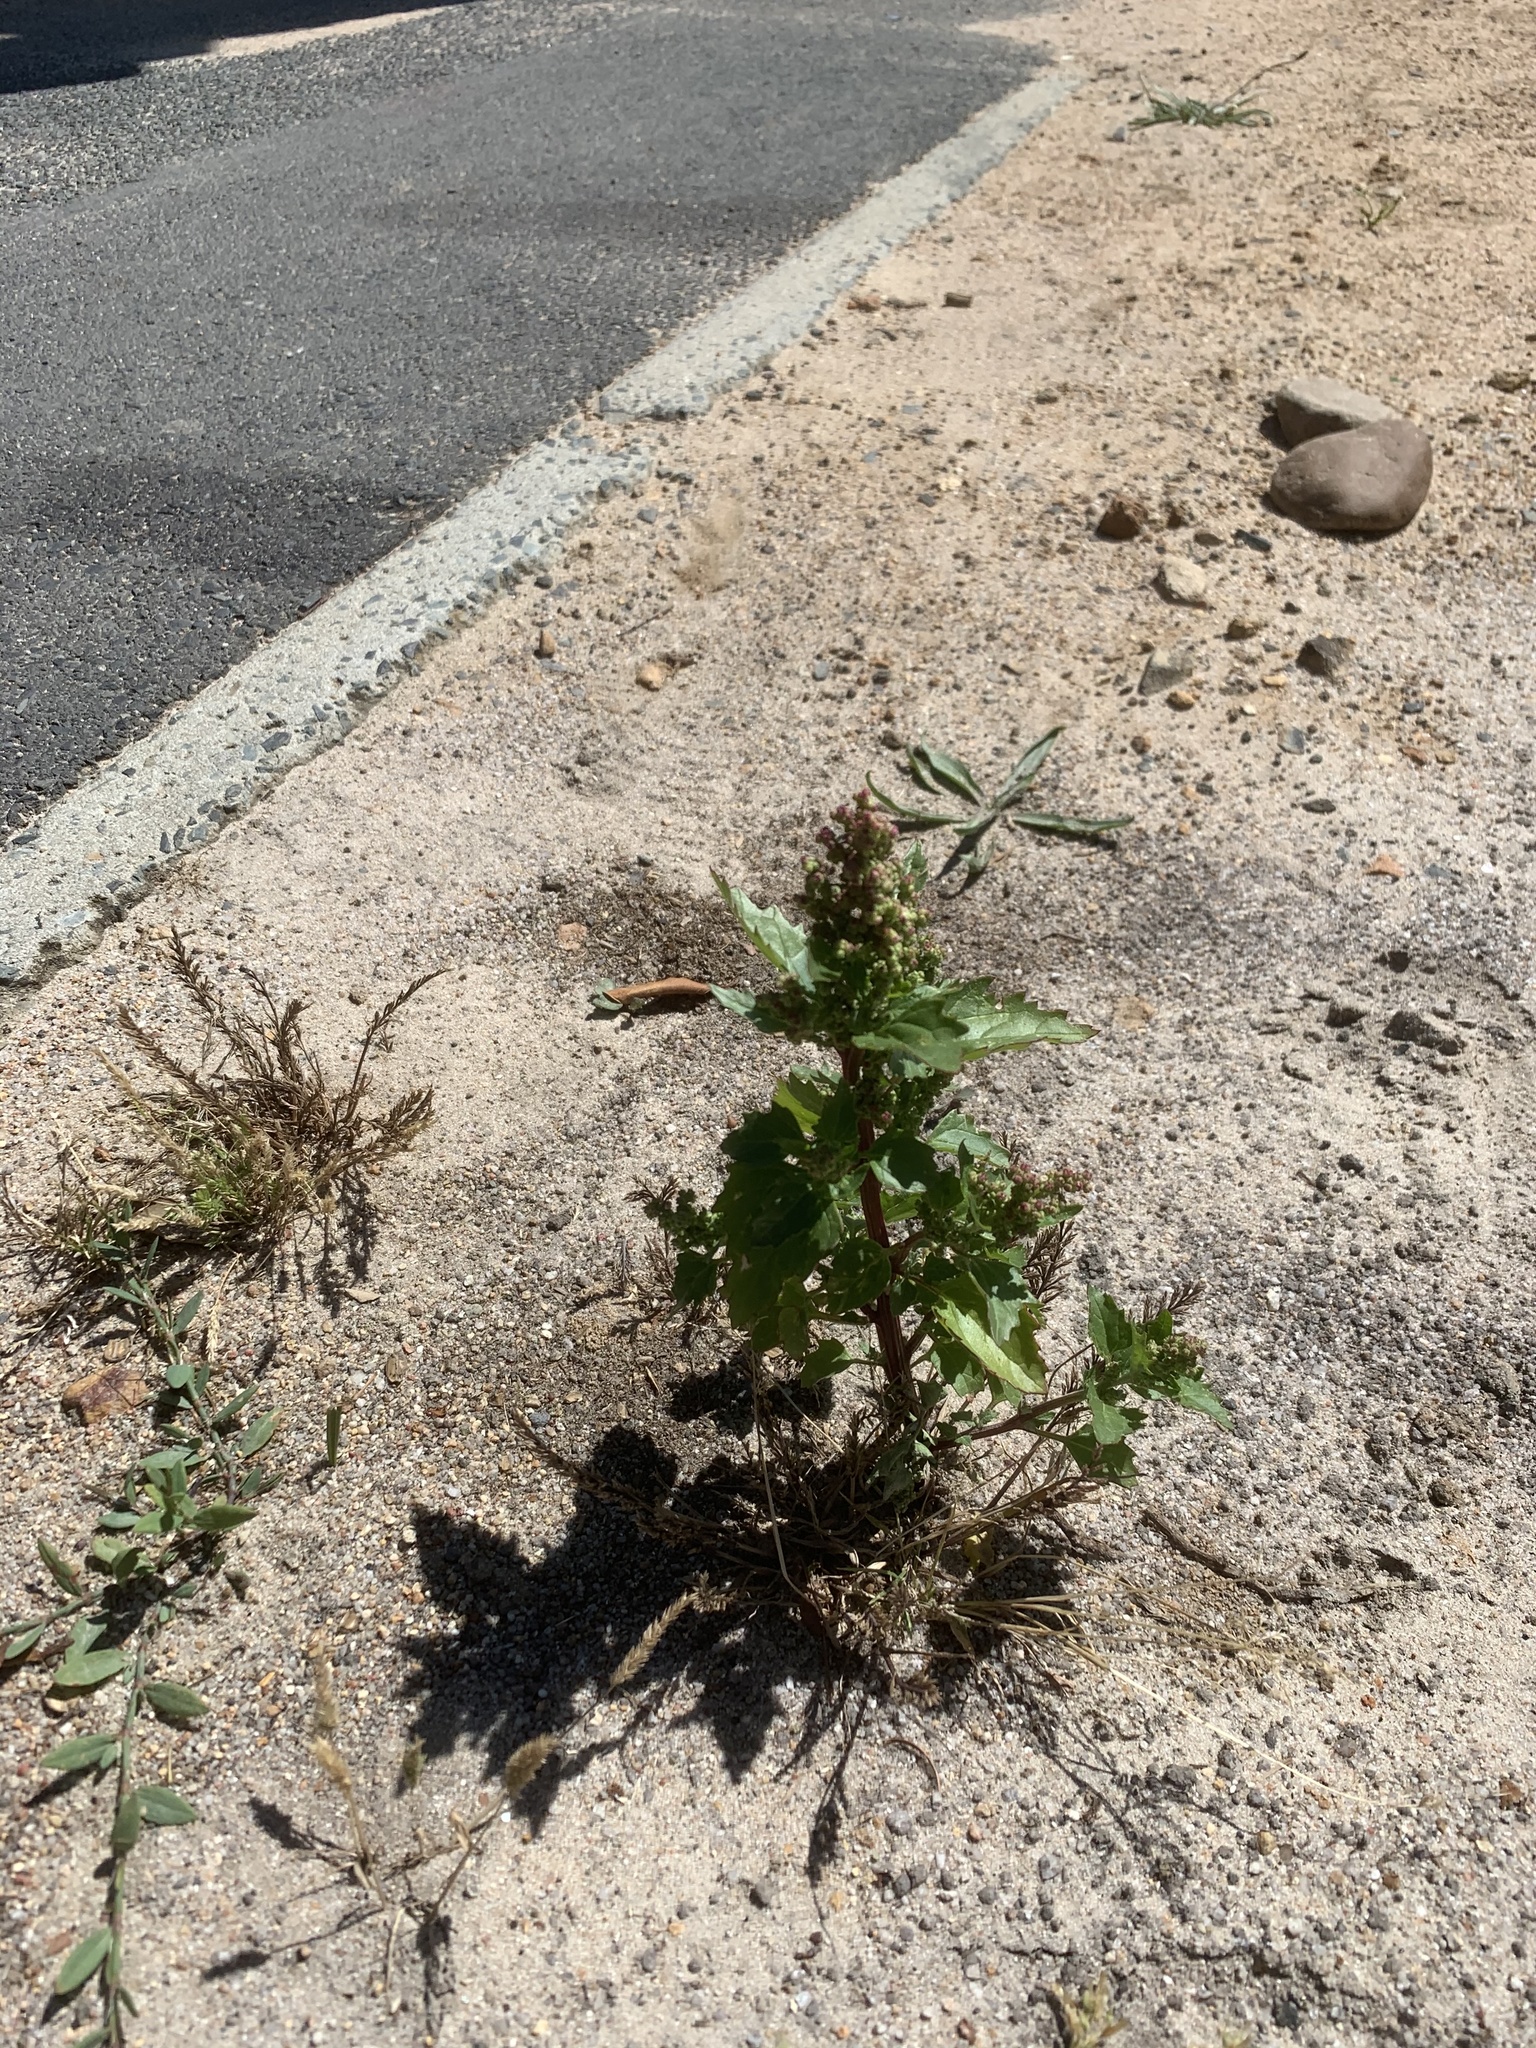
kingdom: Plantae
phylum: Tracheophyta
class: Magnoliopsida
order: Caryophyllales
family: Amaranthaceae
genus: Chenopodiastrum
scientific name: Chenopodiastrum murale
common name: Sowbane
